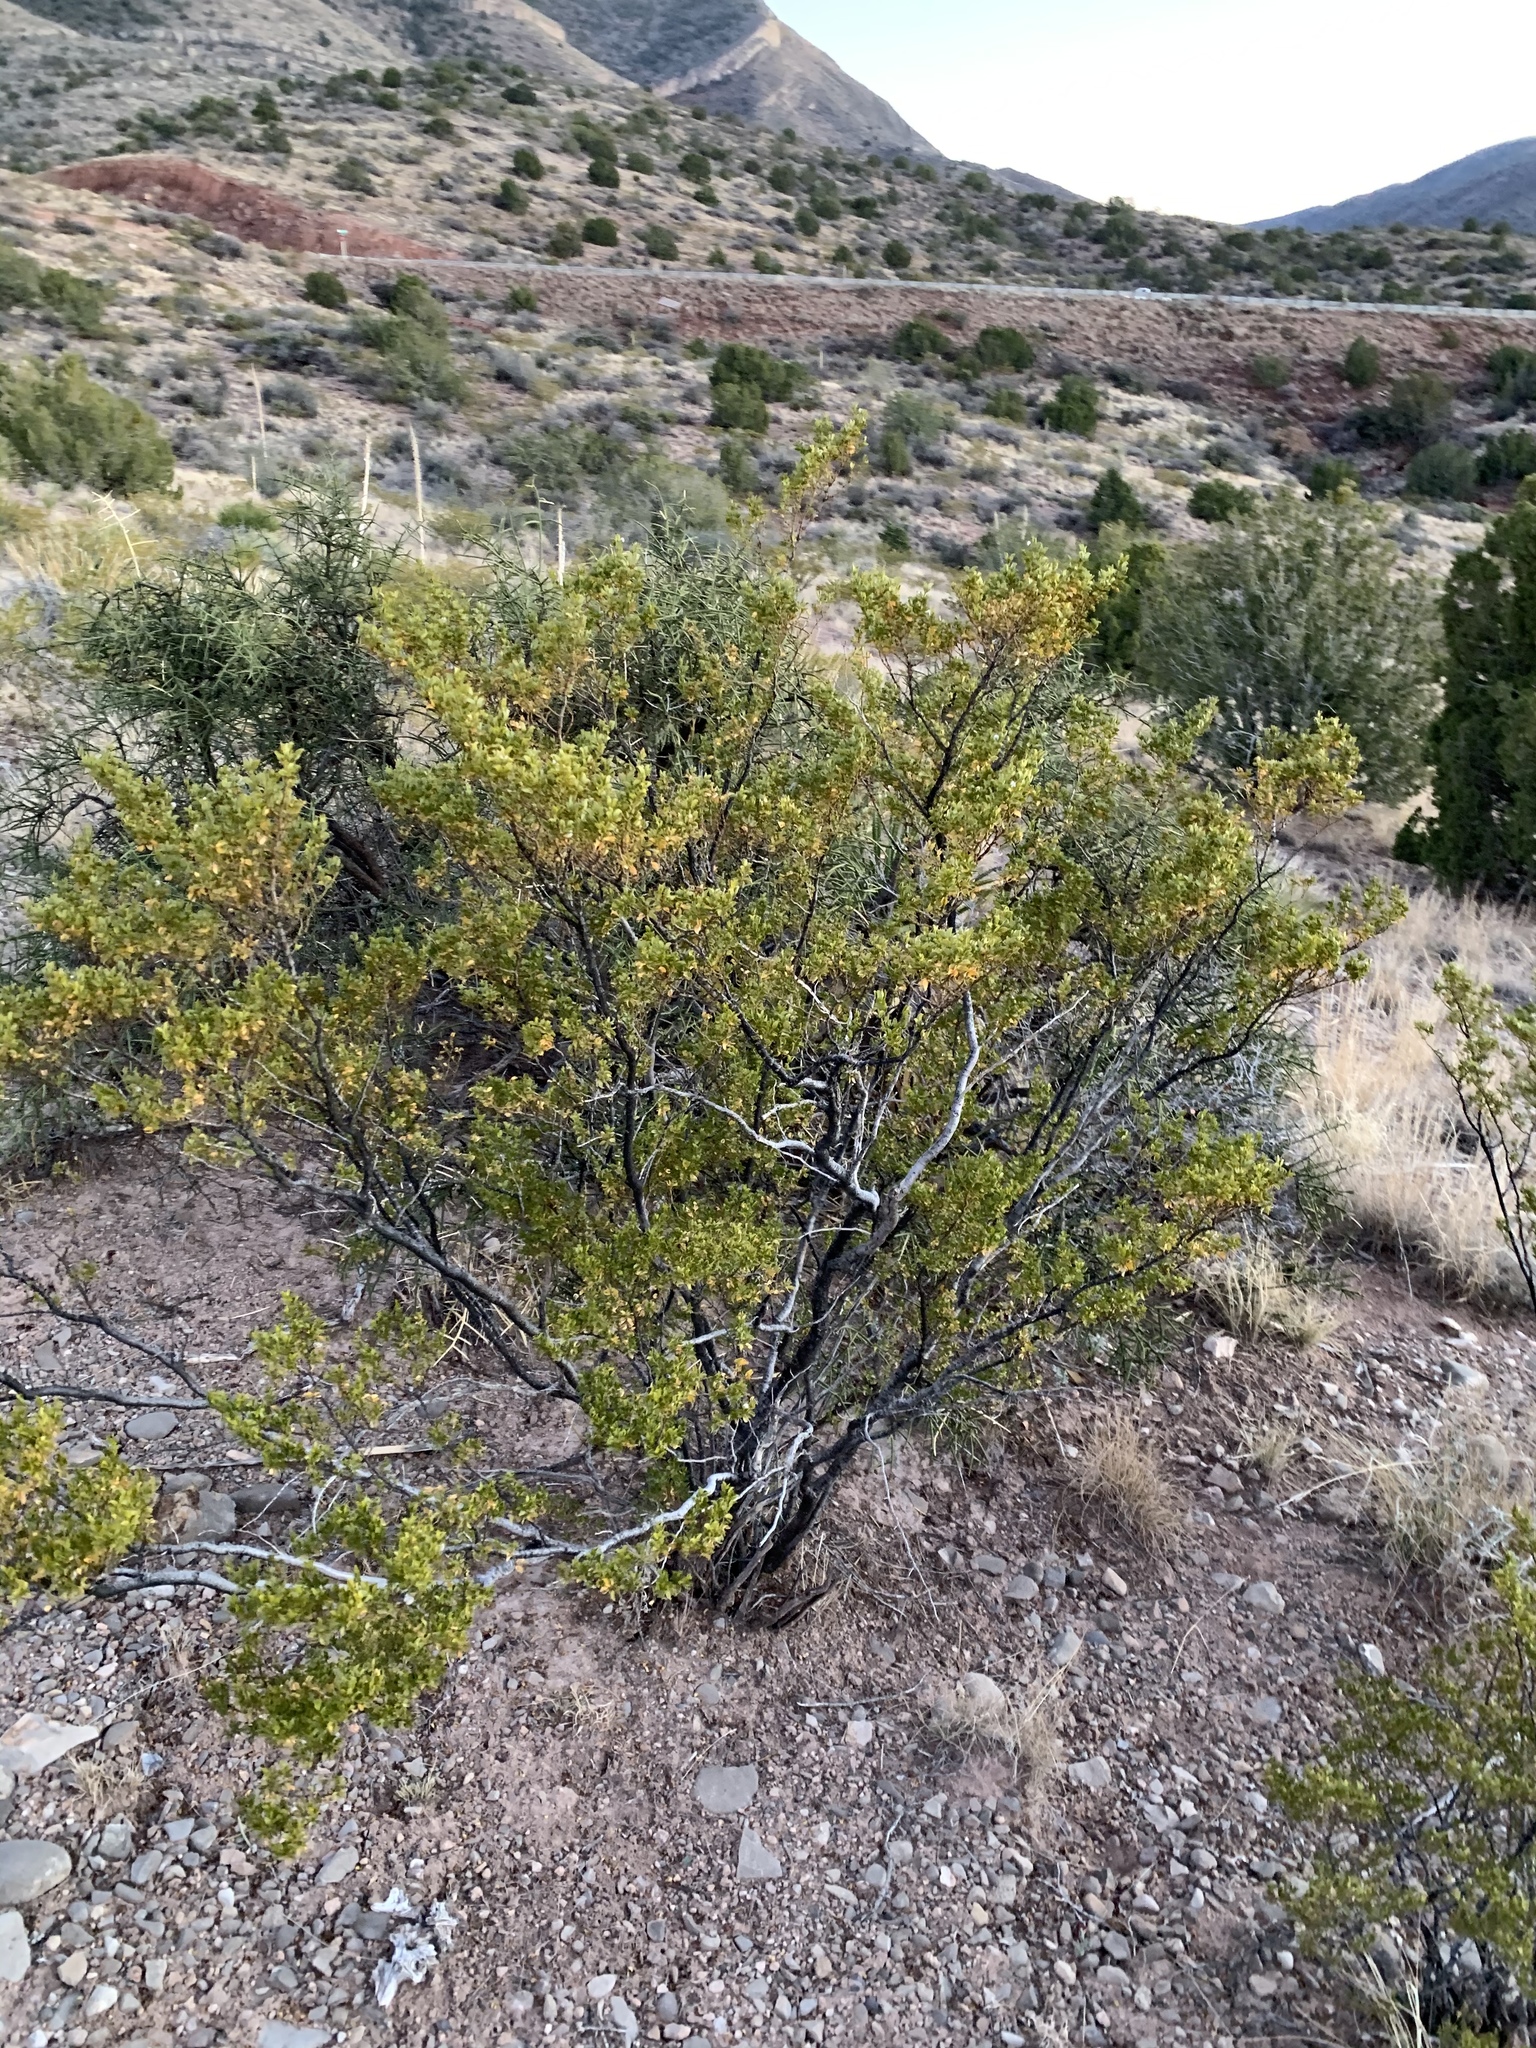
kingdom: Plantae
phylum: Tracheophyta
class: Magnoliopsida
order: Zygophyllales
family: Zygophyllaceae
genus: Larrea
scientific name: Larrea tridentata
